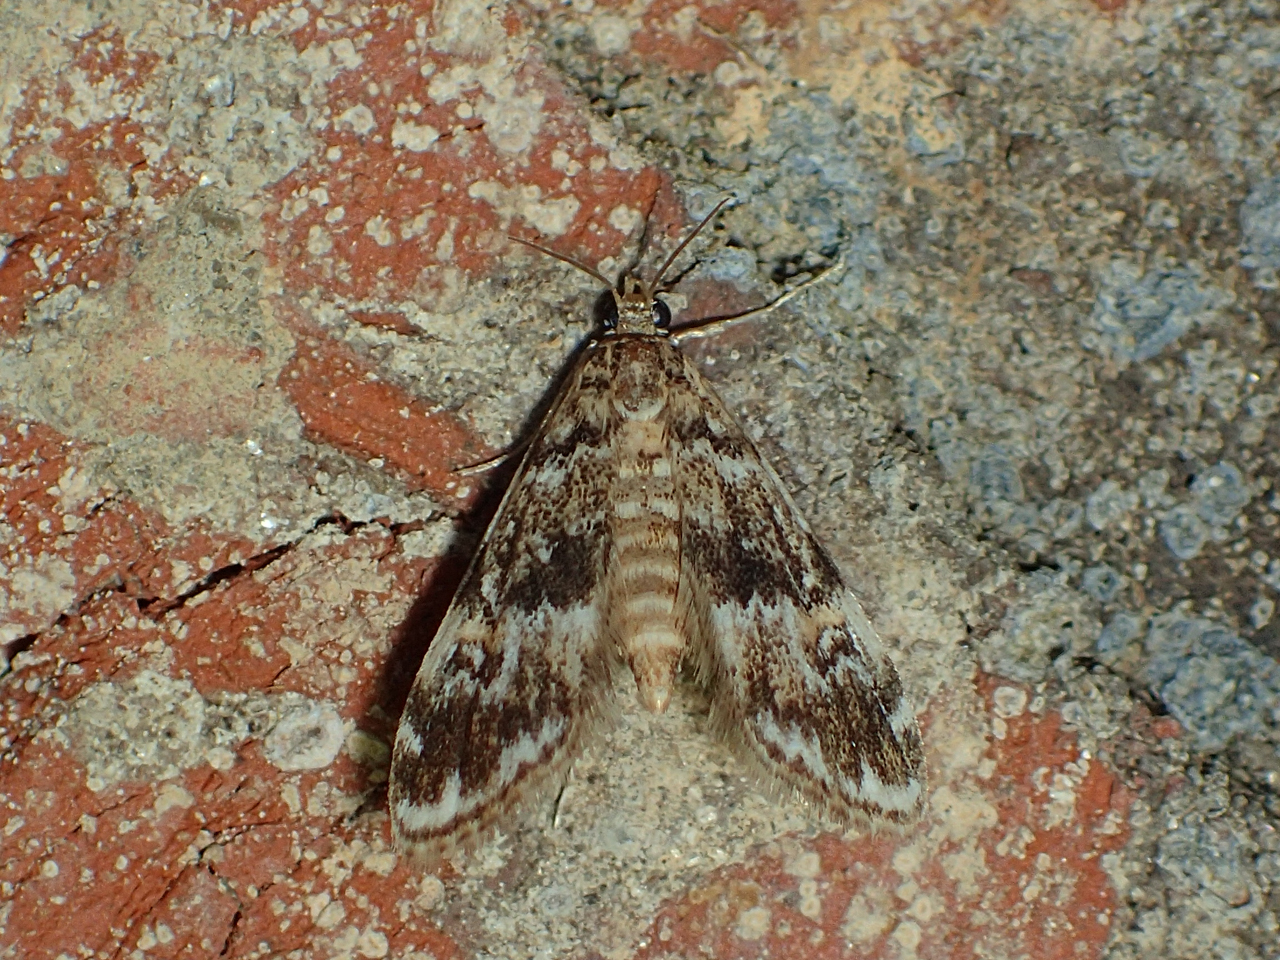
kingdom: Animalia
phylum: Arthropoda
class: Insecta
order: Lepidoptera
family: Crambidae
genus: Elophila
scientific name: Elophila obliteralis
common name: Waterlily leafcutter moth
